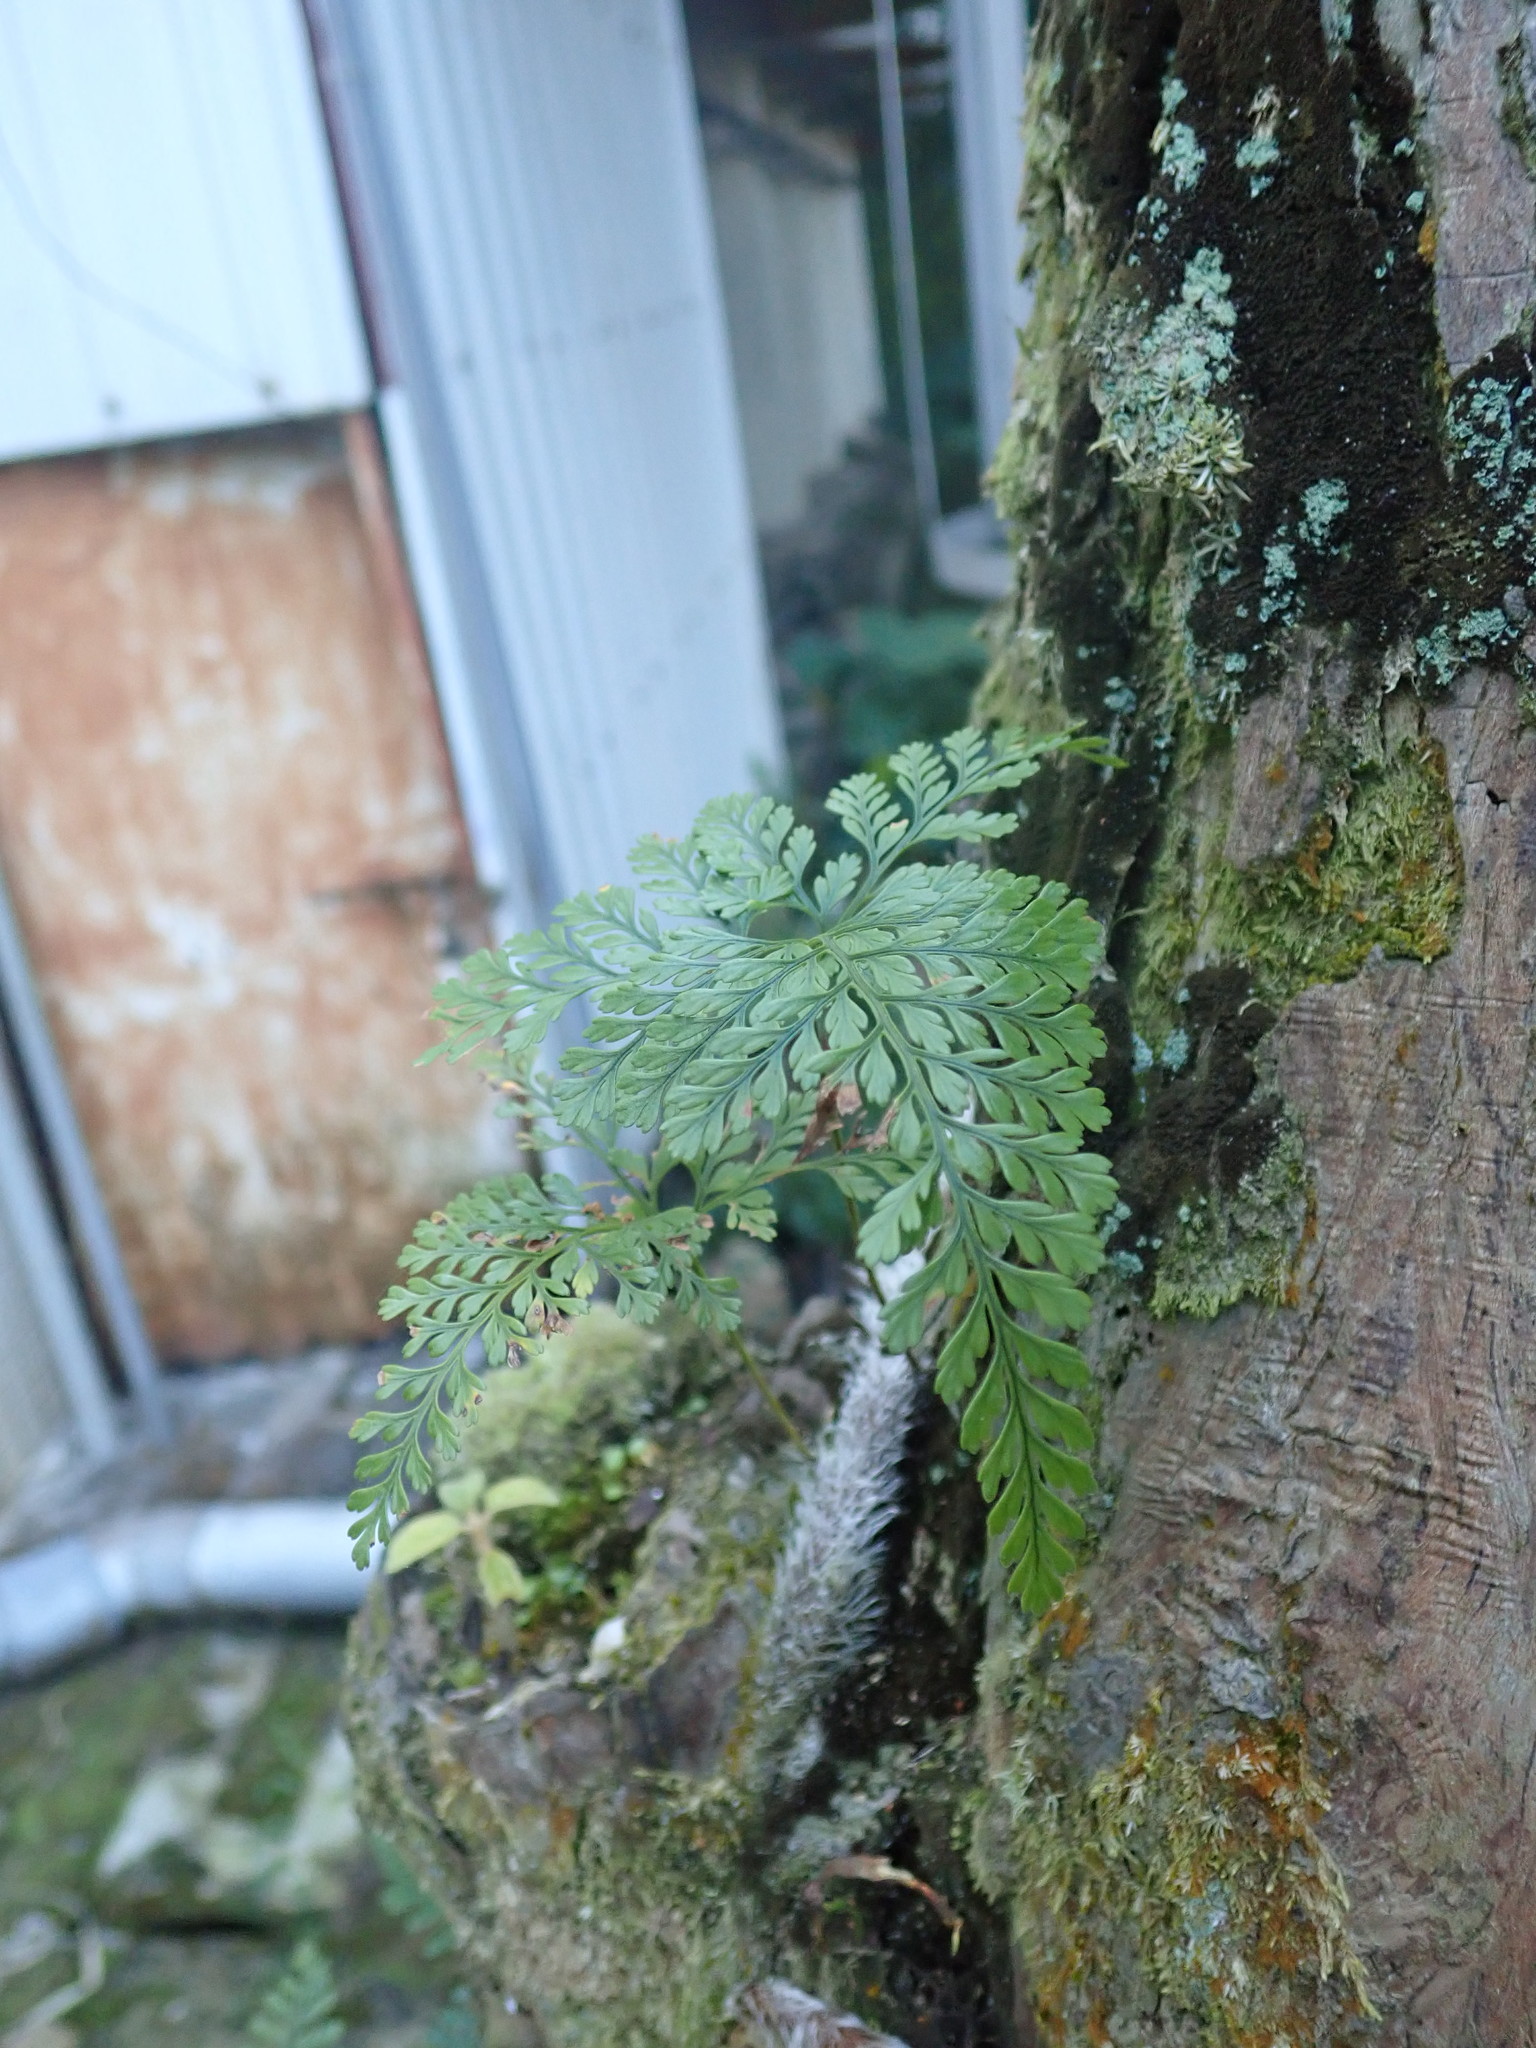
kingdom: Plantae
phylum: Tracheophyta
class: Polypodiopsida
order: Polypodiales
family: Davalliaceae
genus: Davallia
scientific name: Davallia griffithiana
